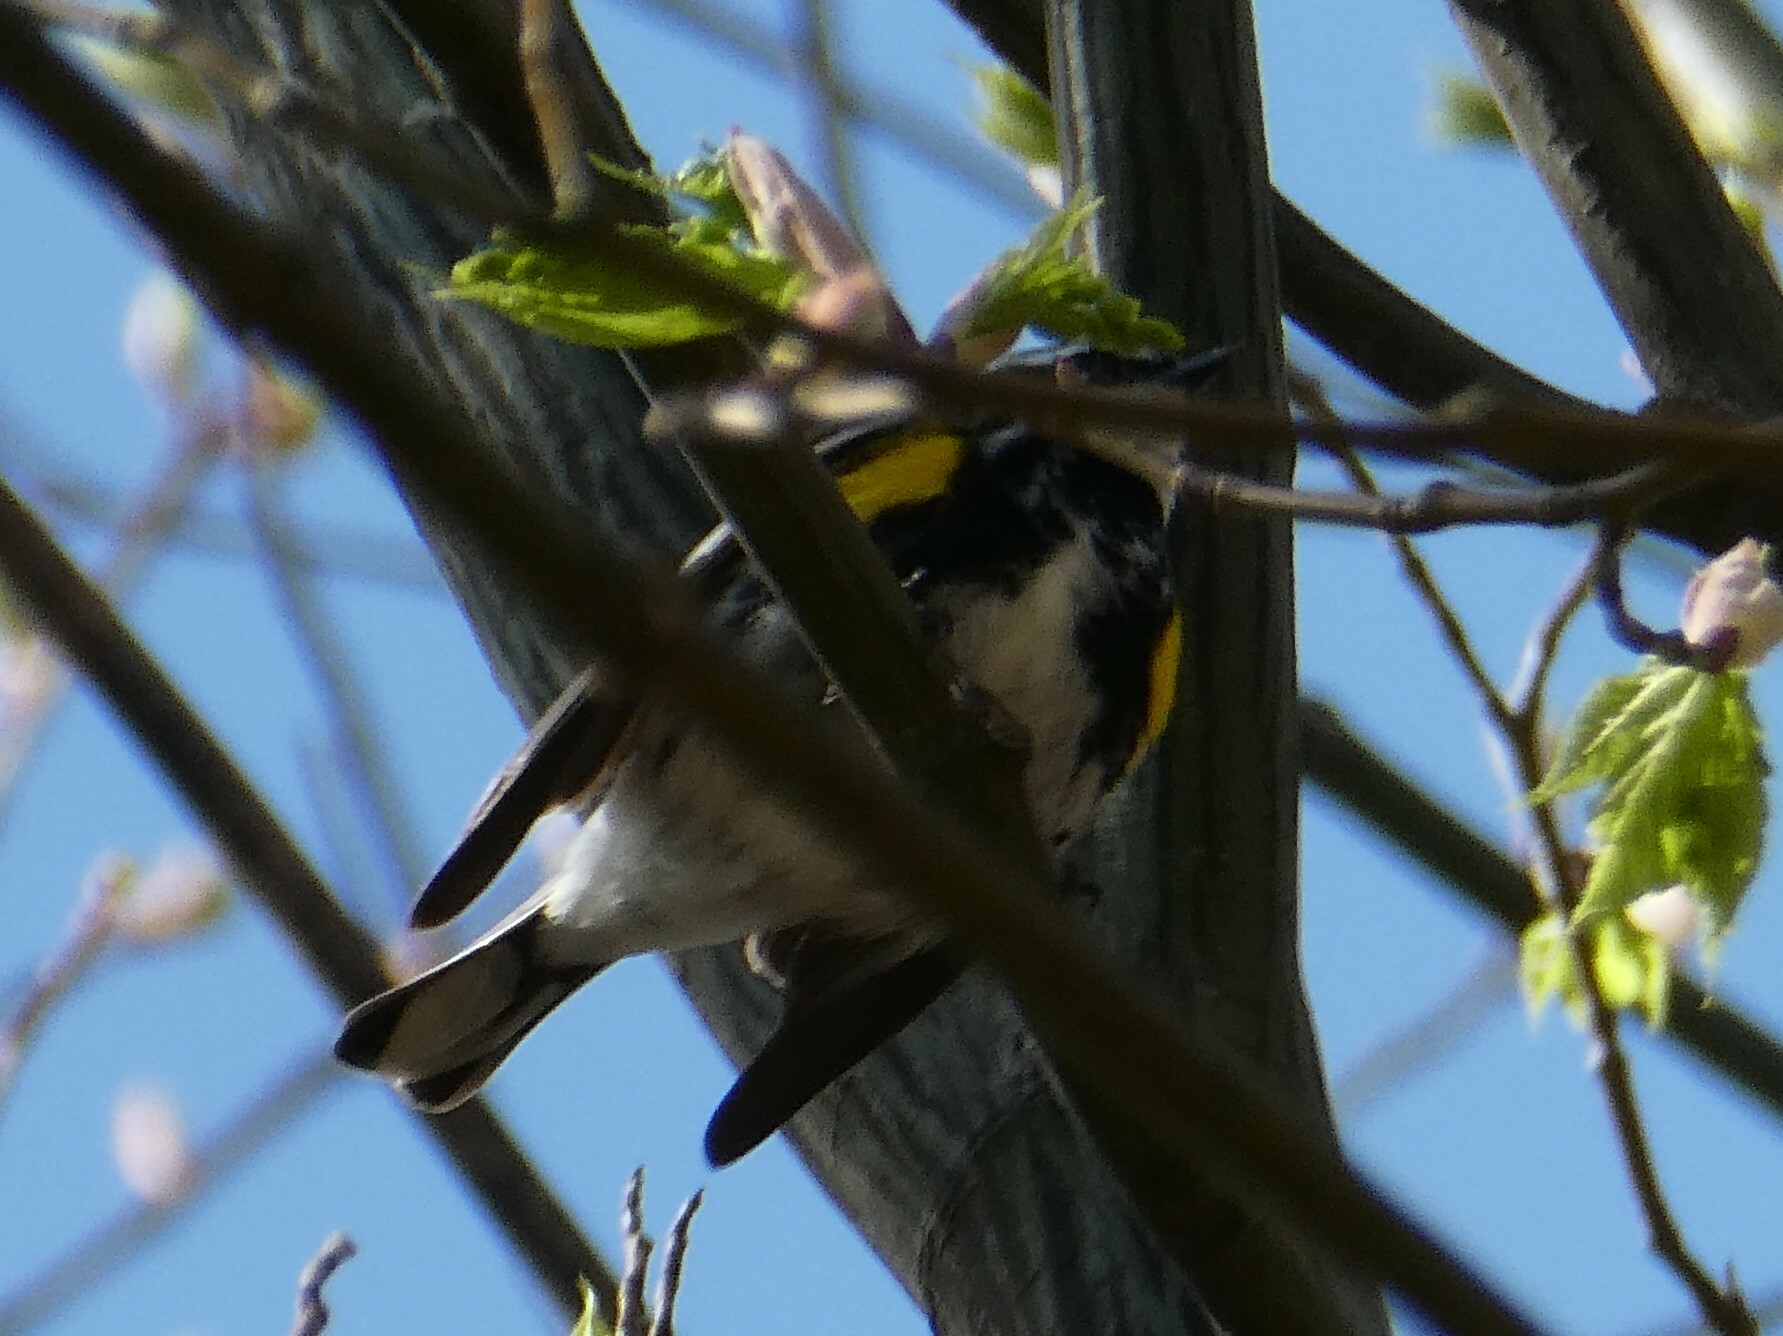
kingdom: Animalia
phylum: Chordata
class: Aves
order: Passeriformes
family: Parulidae
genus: Setophaga
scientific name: Setophaga coronata
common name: Myrtle warbler
